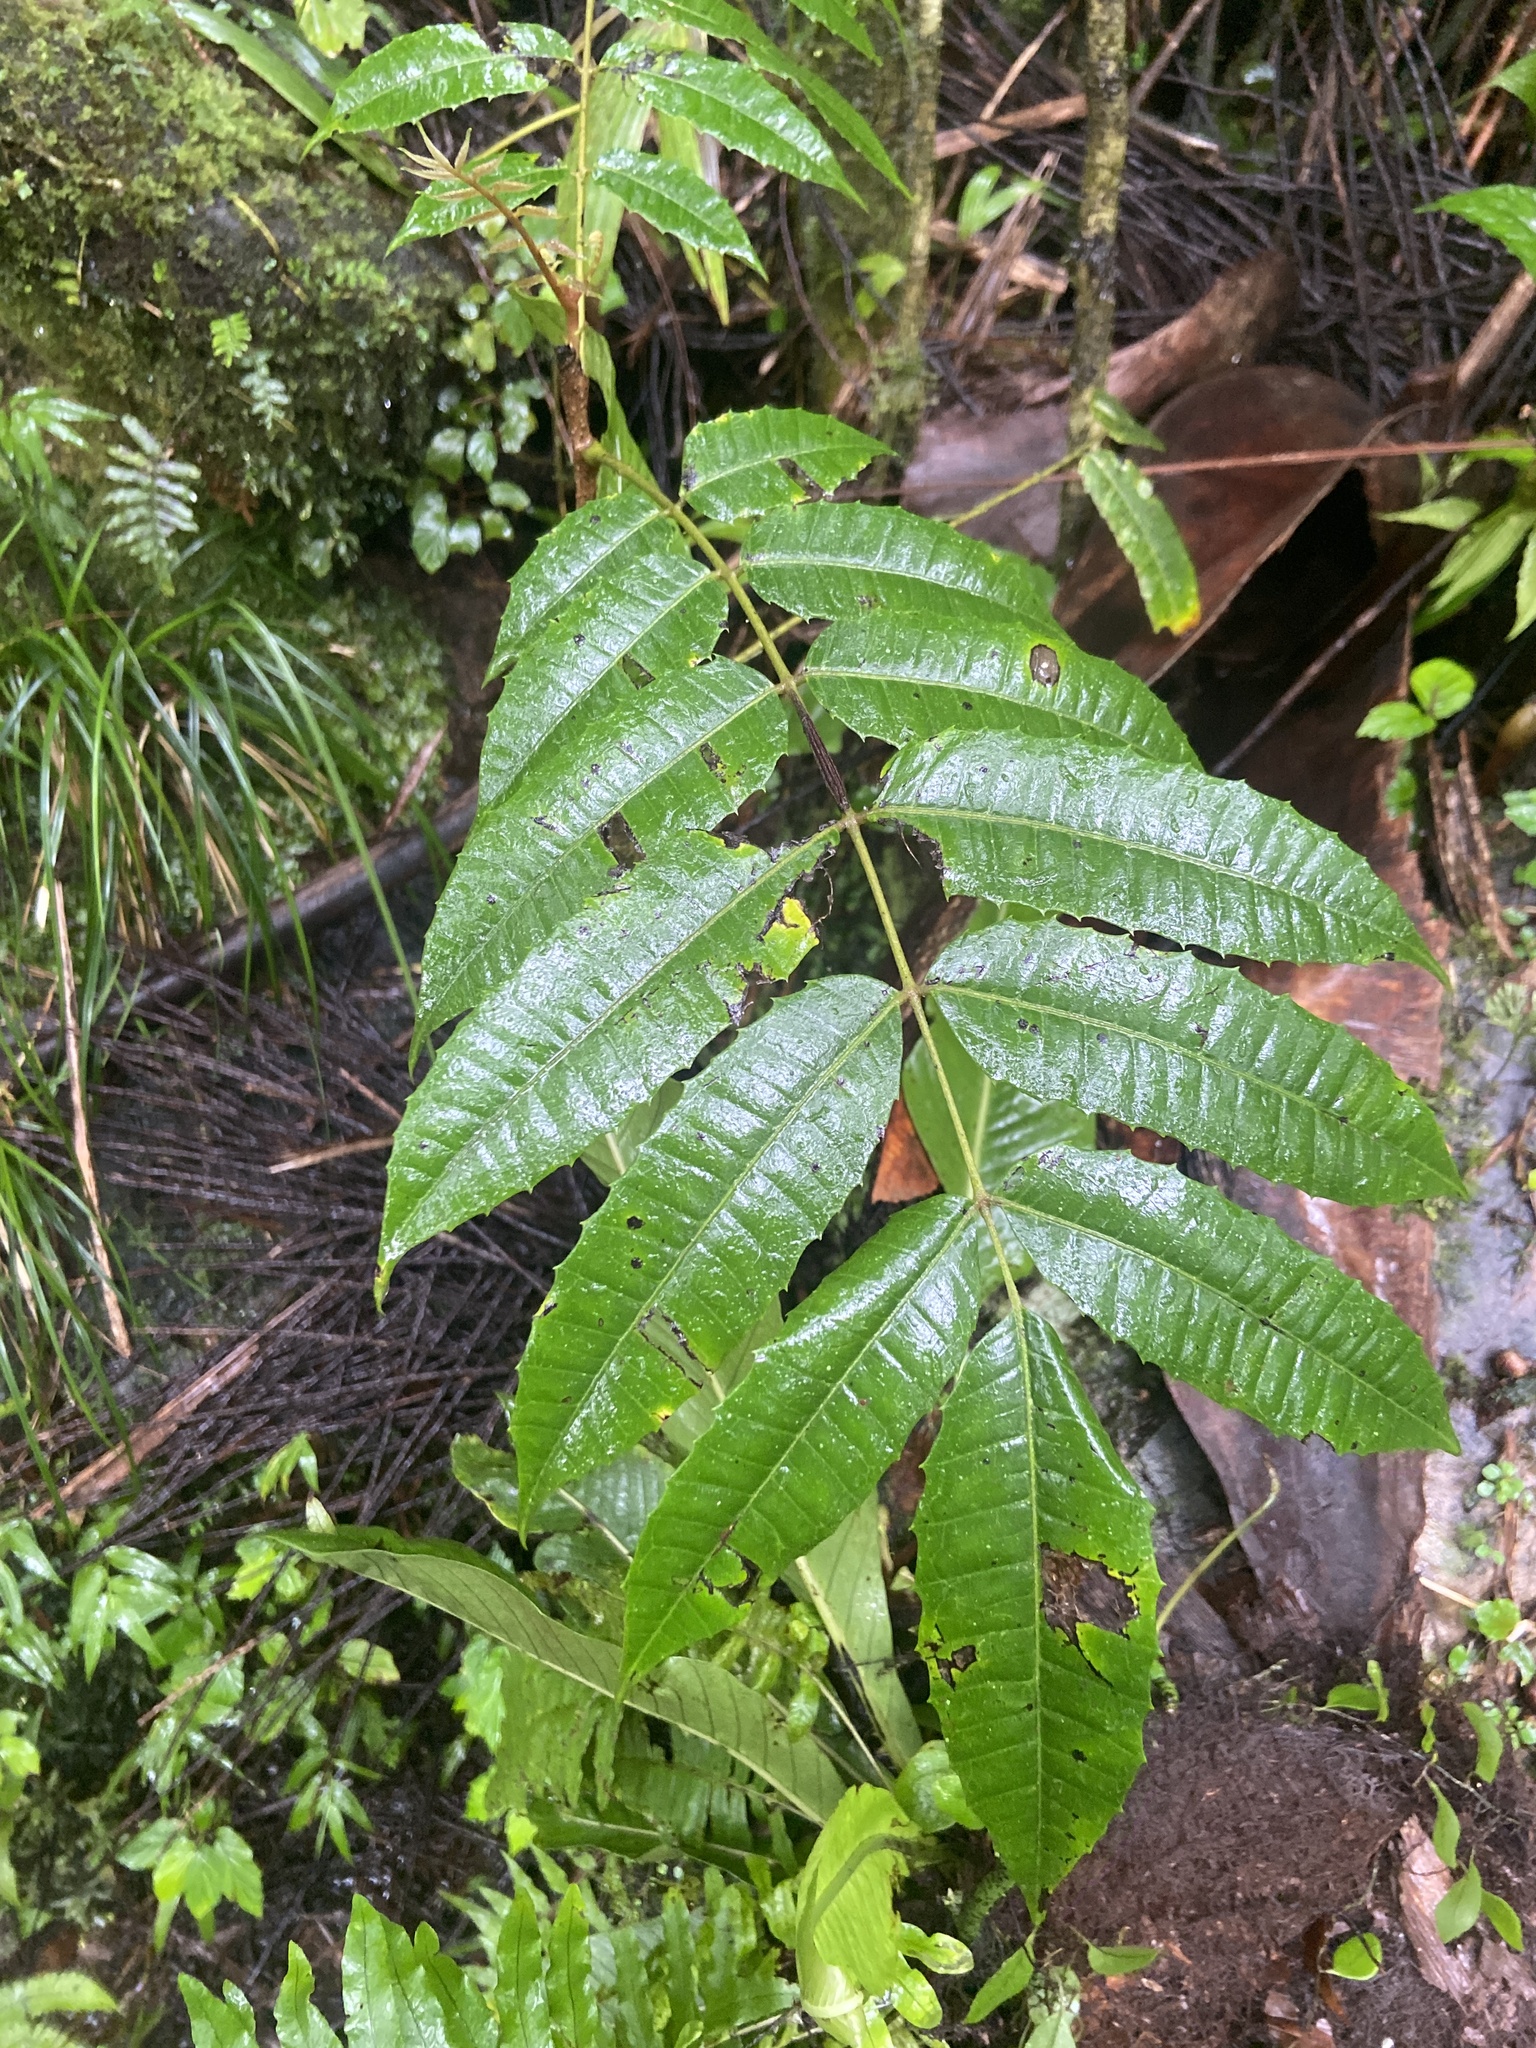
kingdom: Plantae
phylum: Tracheophyta
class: Magnoliopsida
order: Sapindales
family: Anacardiaceae
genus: Comocladia
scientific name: Comocladia glabra
